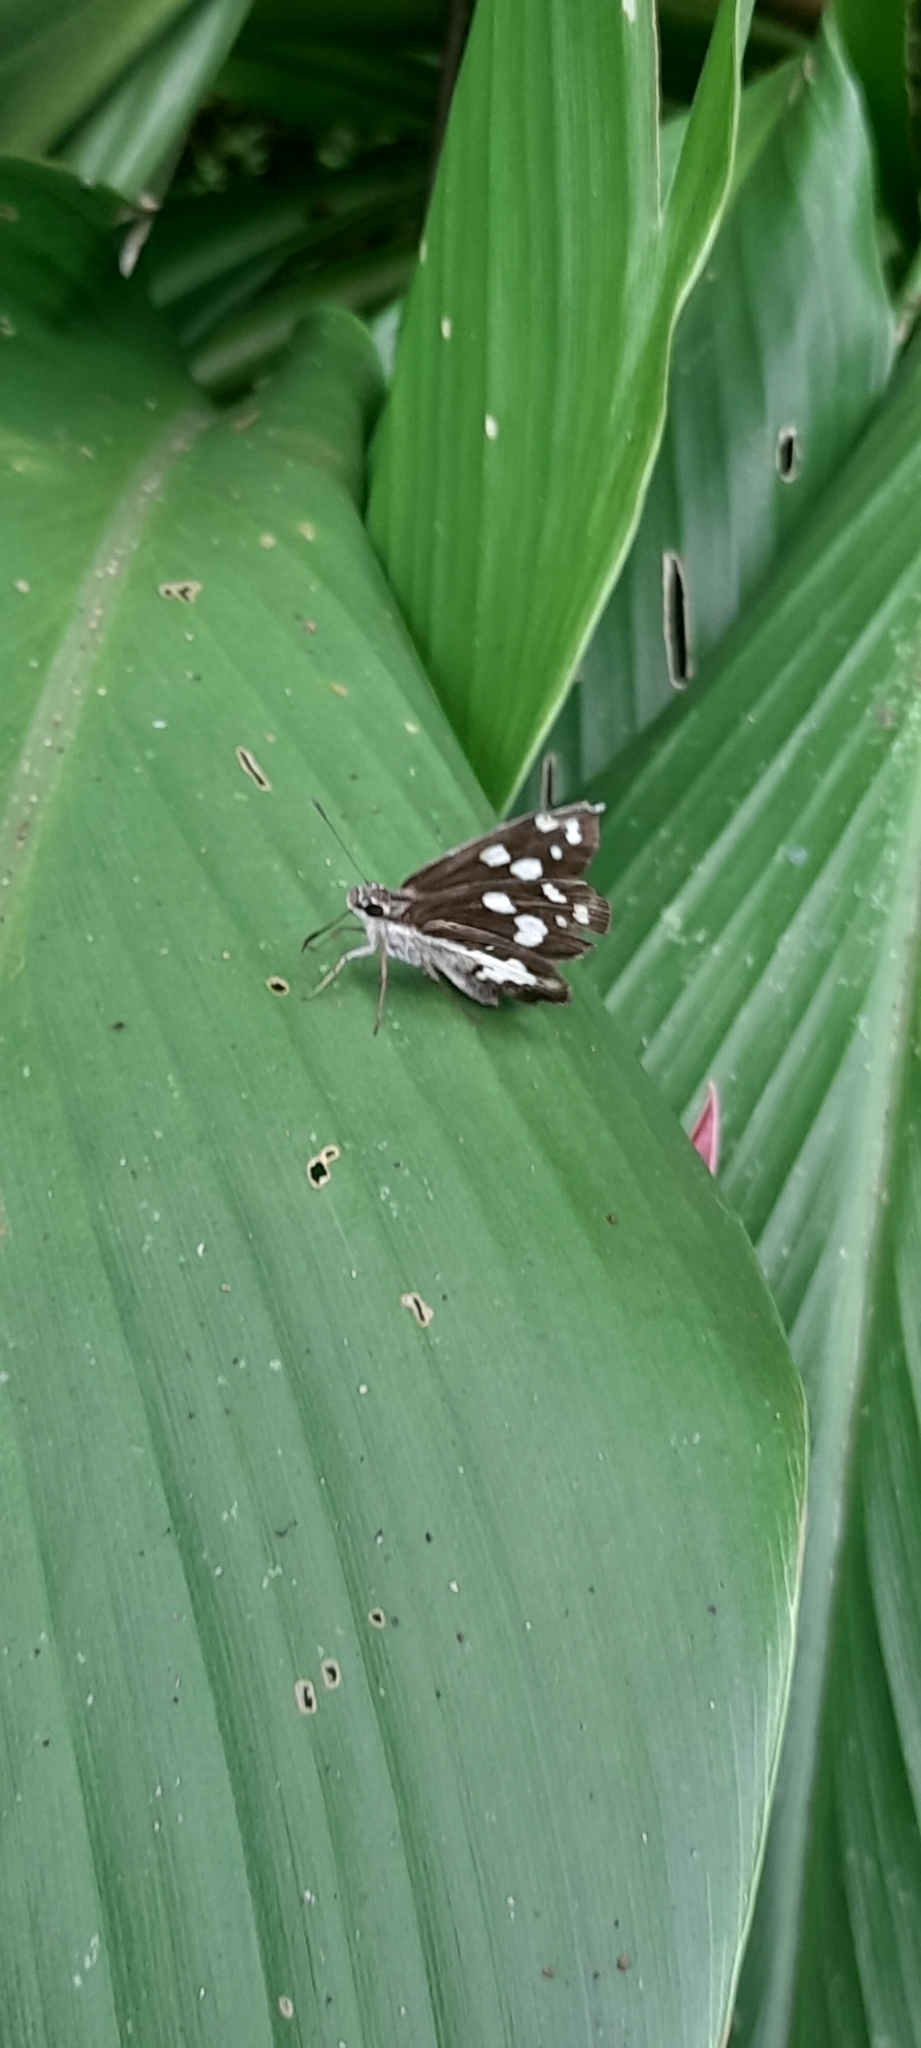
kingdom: Animalia
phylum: Arthropoda
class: Insecta
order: Lepidoptera
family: Hesperiidae
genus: Udaspes
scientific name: Udaspes folus
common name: Grass demon
